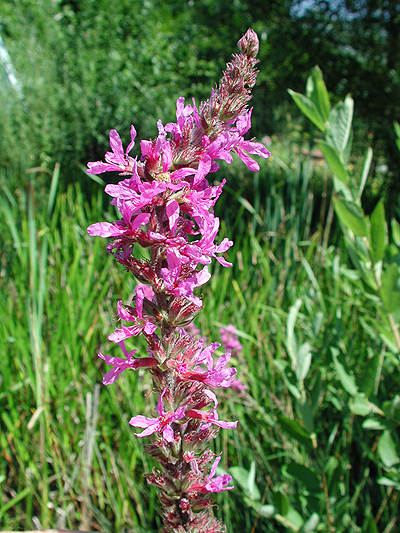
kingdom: Plantae
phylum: Tracheophyta
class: Magnoliopsida
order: Myrtales
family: Lythraceae
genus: Lythrum
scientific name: Lythrum salicaria
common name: Purple loosestrife
